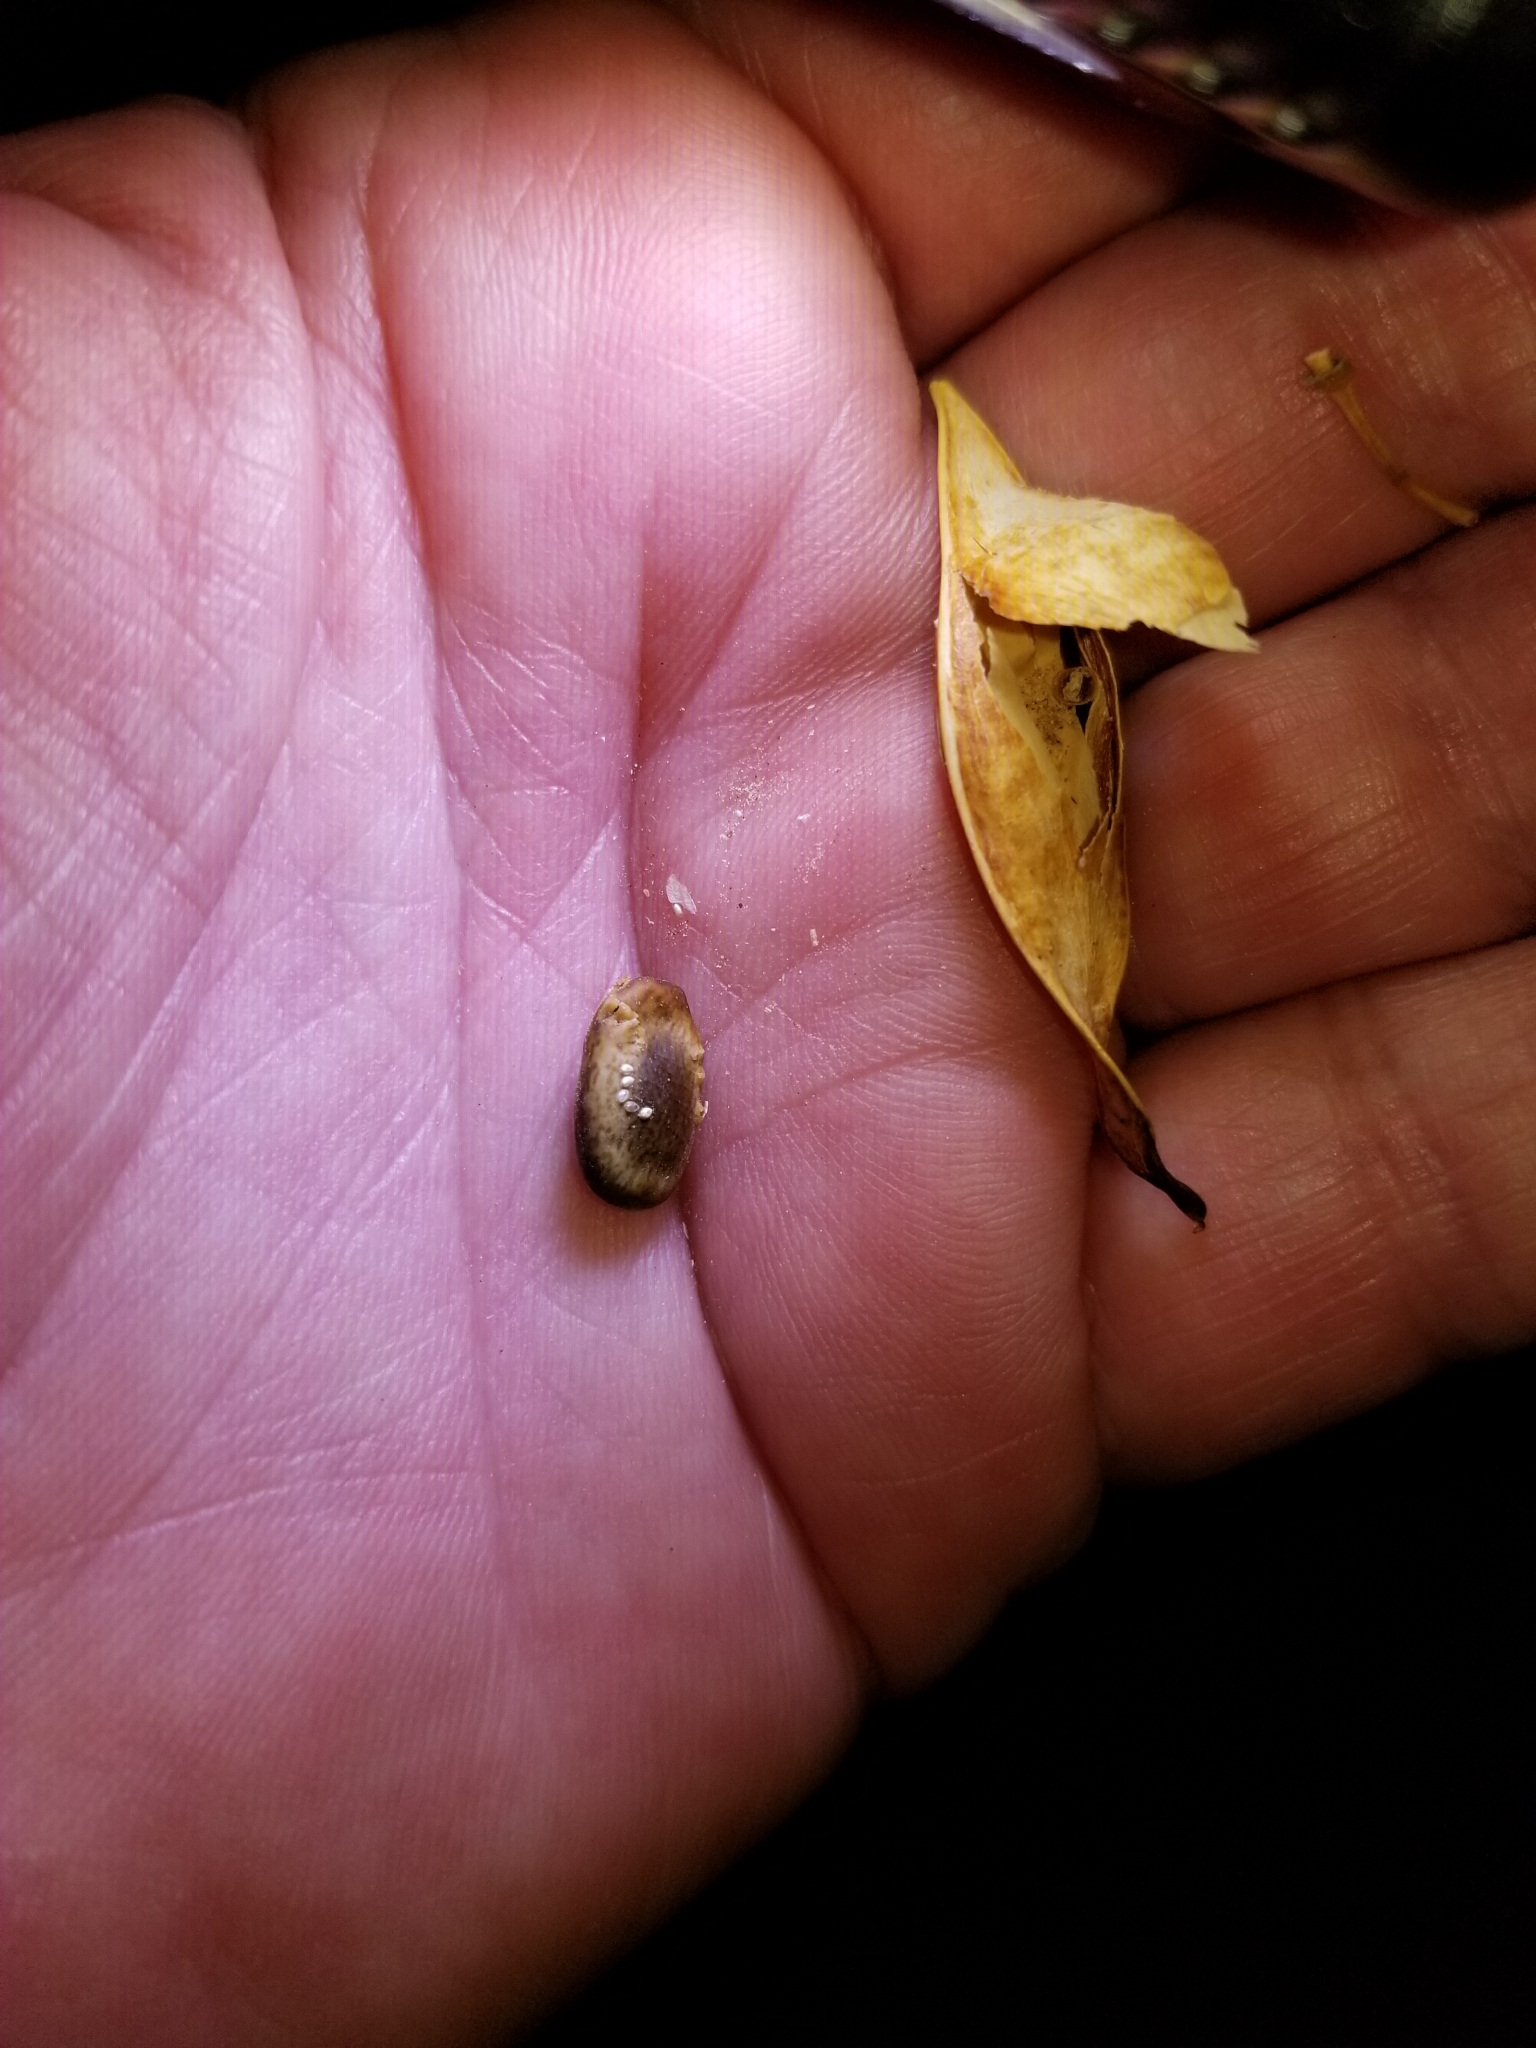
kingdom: Plantae
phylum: Tracheophyta
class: Magnoliopsida
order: Fabales
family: Fabaceae
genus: Parkinsonia
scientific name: Parkinsonia florida
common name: Blue paloverde
